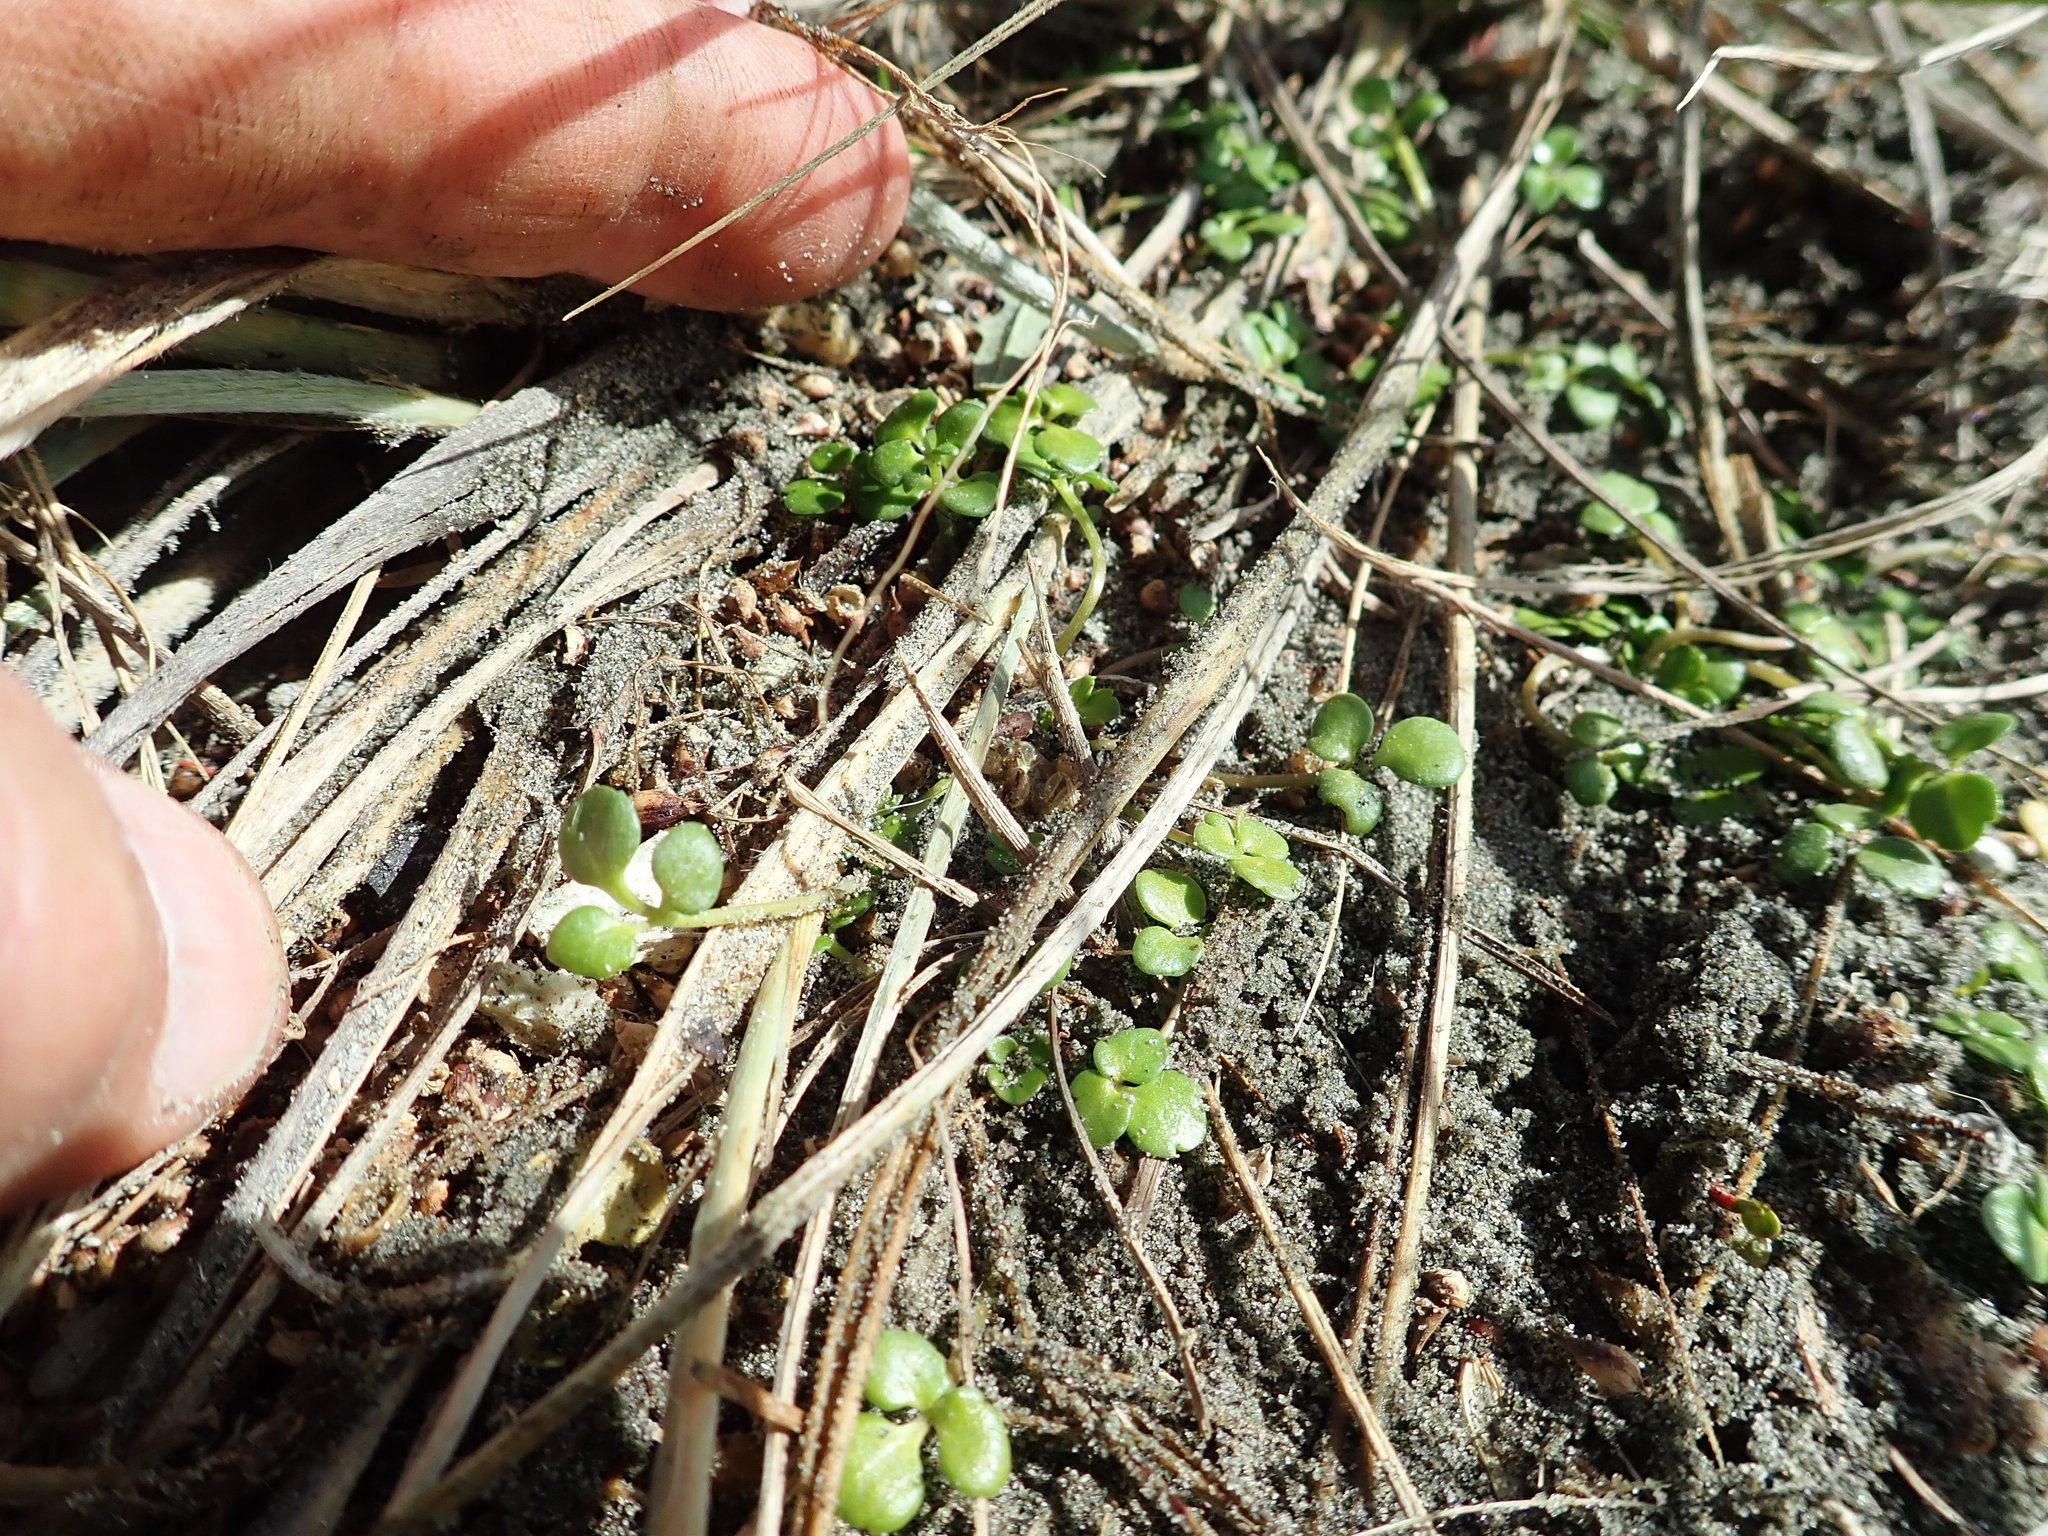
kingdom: Plantae
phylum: Tracheophyta
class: Magnoliopsida
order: Ranunculales
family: Ranunculaceae
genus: Ranunculus
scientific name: Ranunculus acaulis
